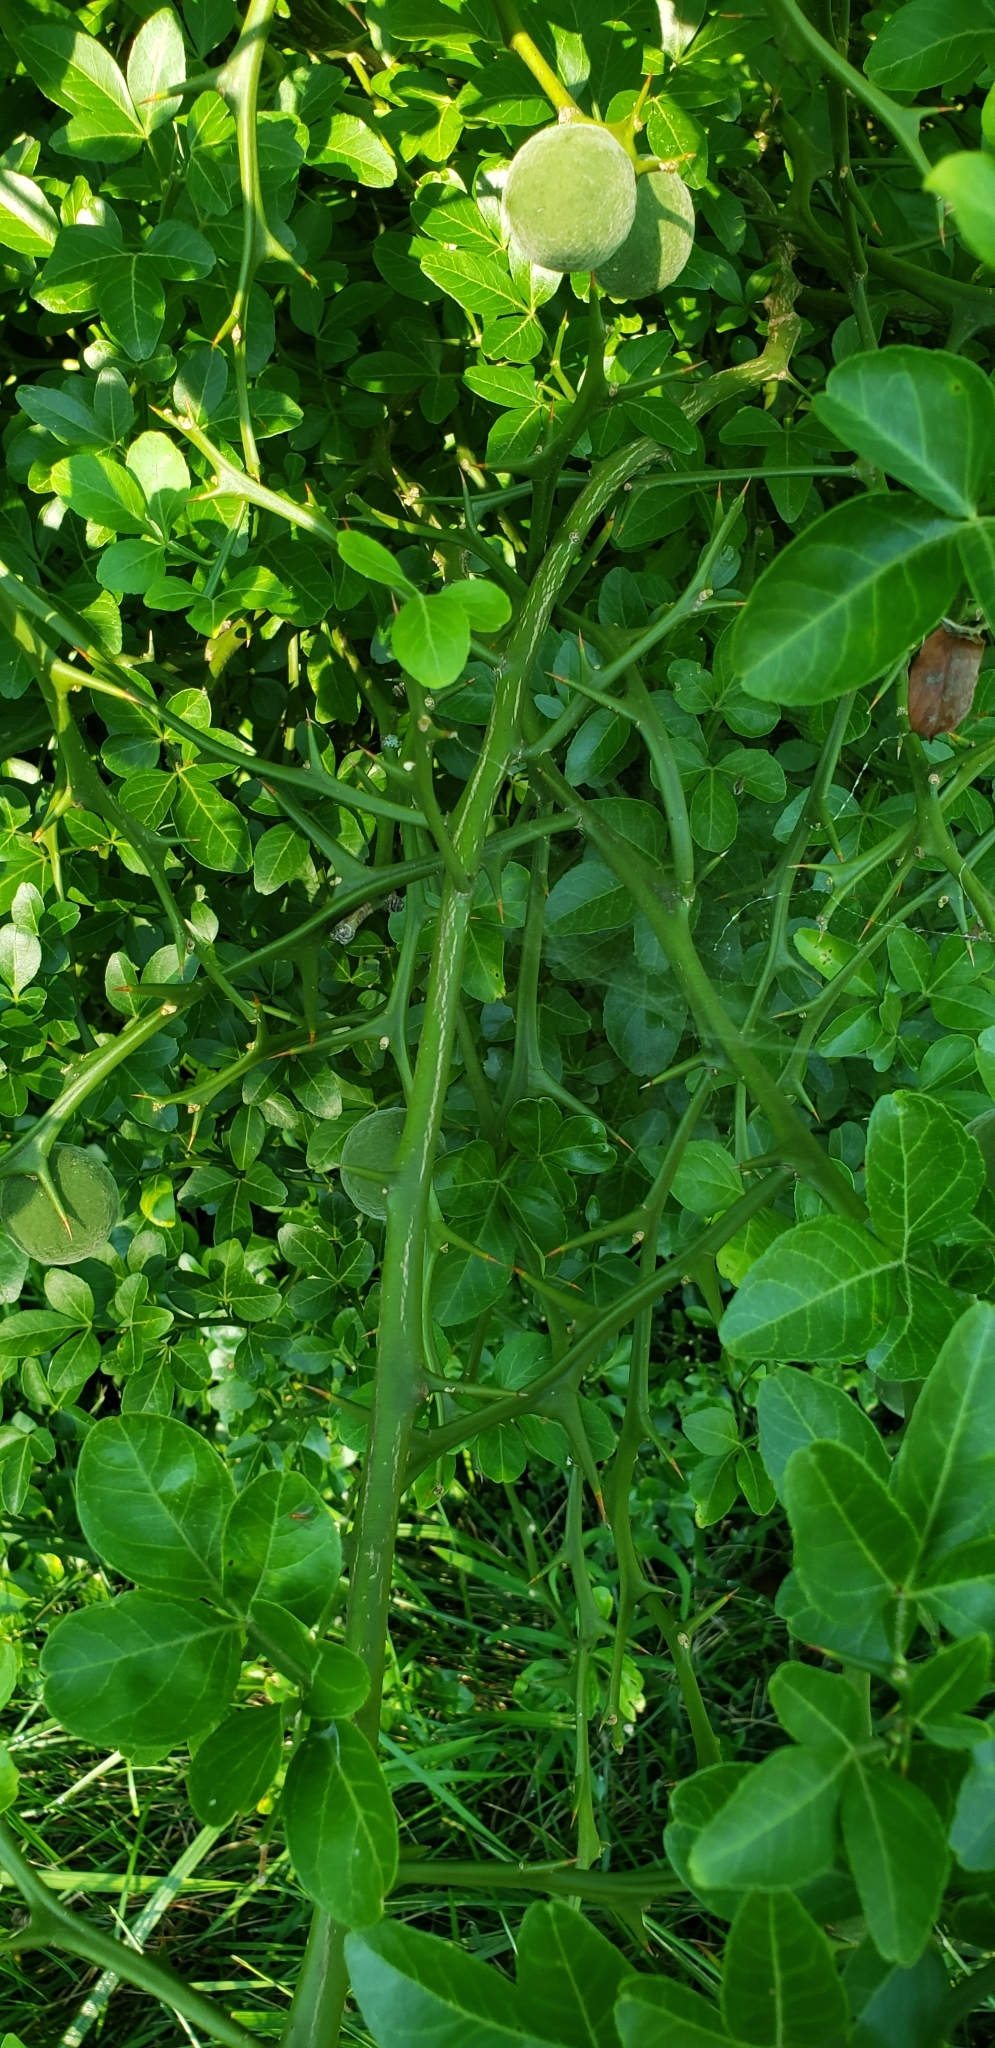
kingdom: Plantae
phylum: Tracheophyta
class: Magnoliopsida
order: Sapindales
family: Rutaceae
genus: Citrus
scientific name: Citrus trifoliata
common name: Japanese bitter-orange
